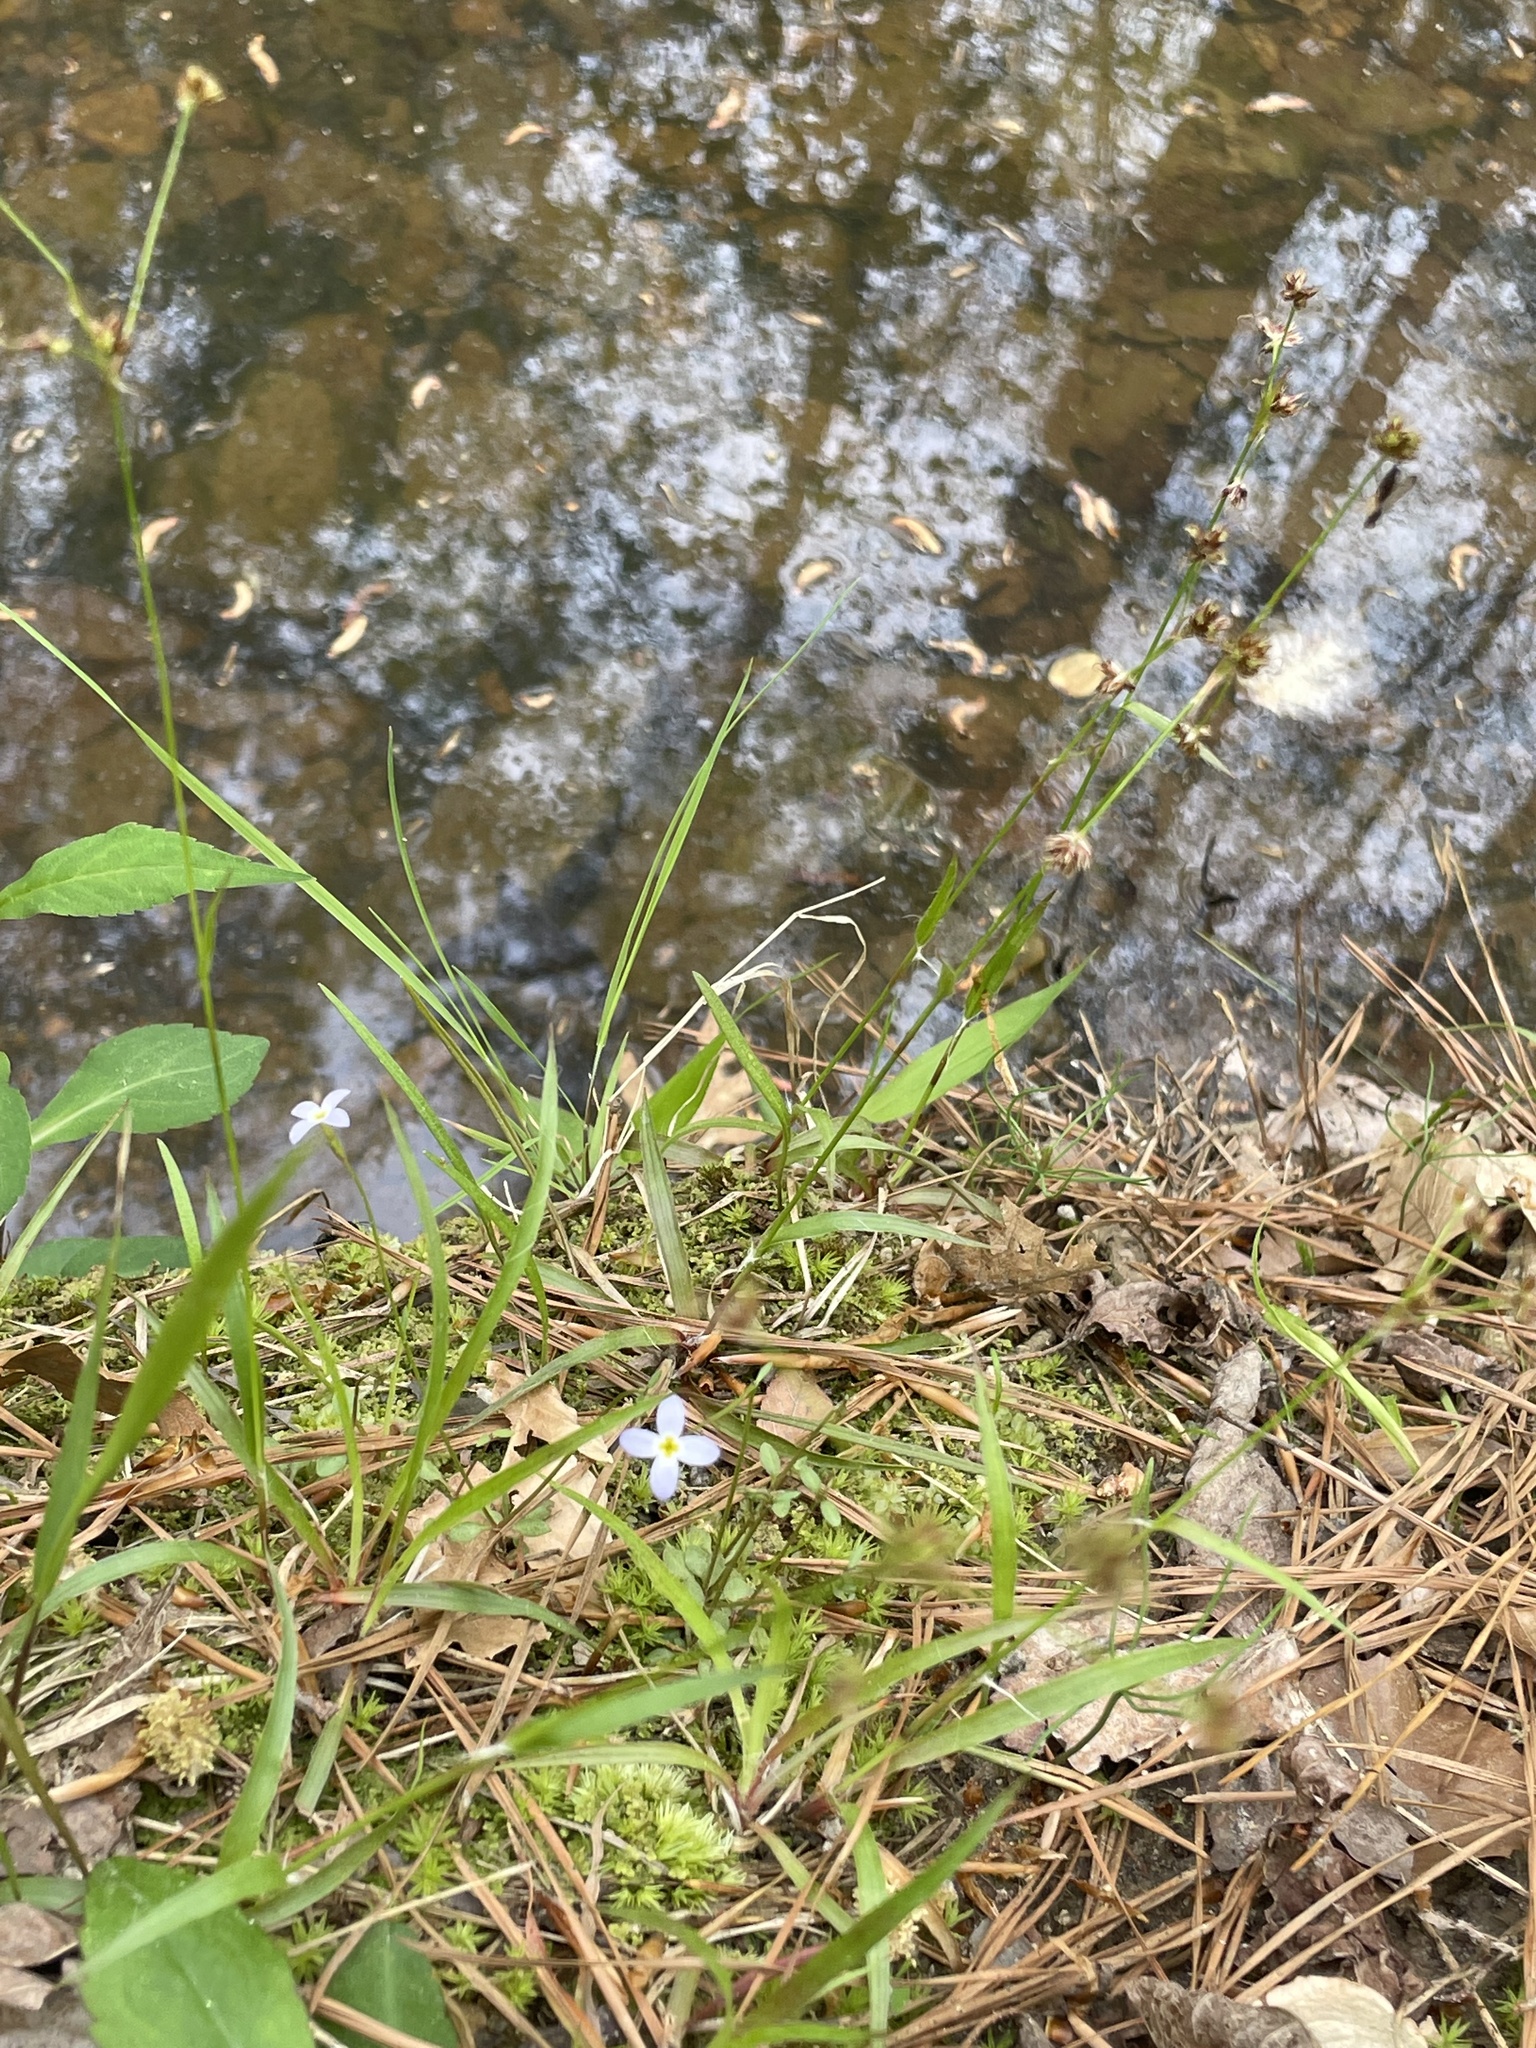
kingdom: Plantae
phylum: Tracheophyta
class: Magnoliopsida
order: Gentianales
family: Rubiaceae
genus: Houstonia
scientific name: Houstonia caerulea
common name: Bluets
